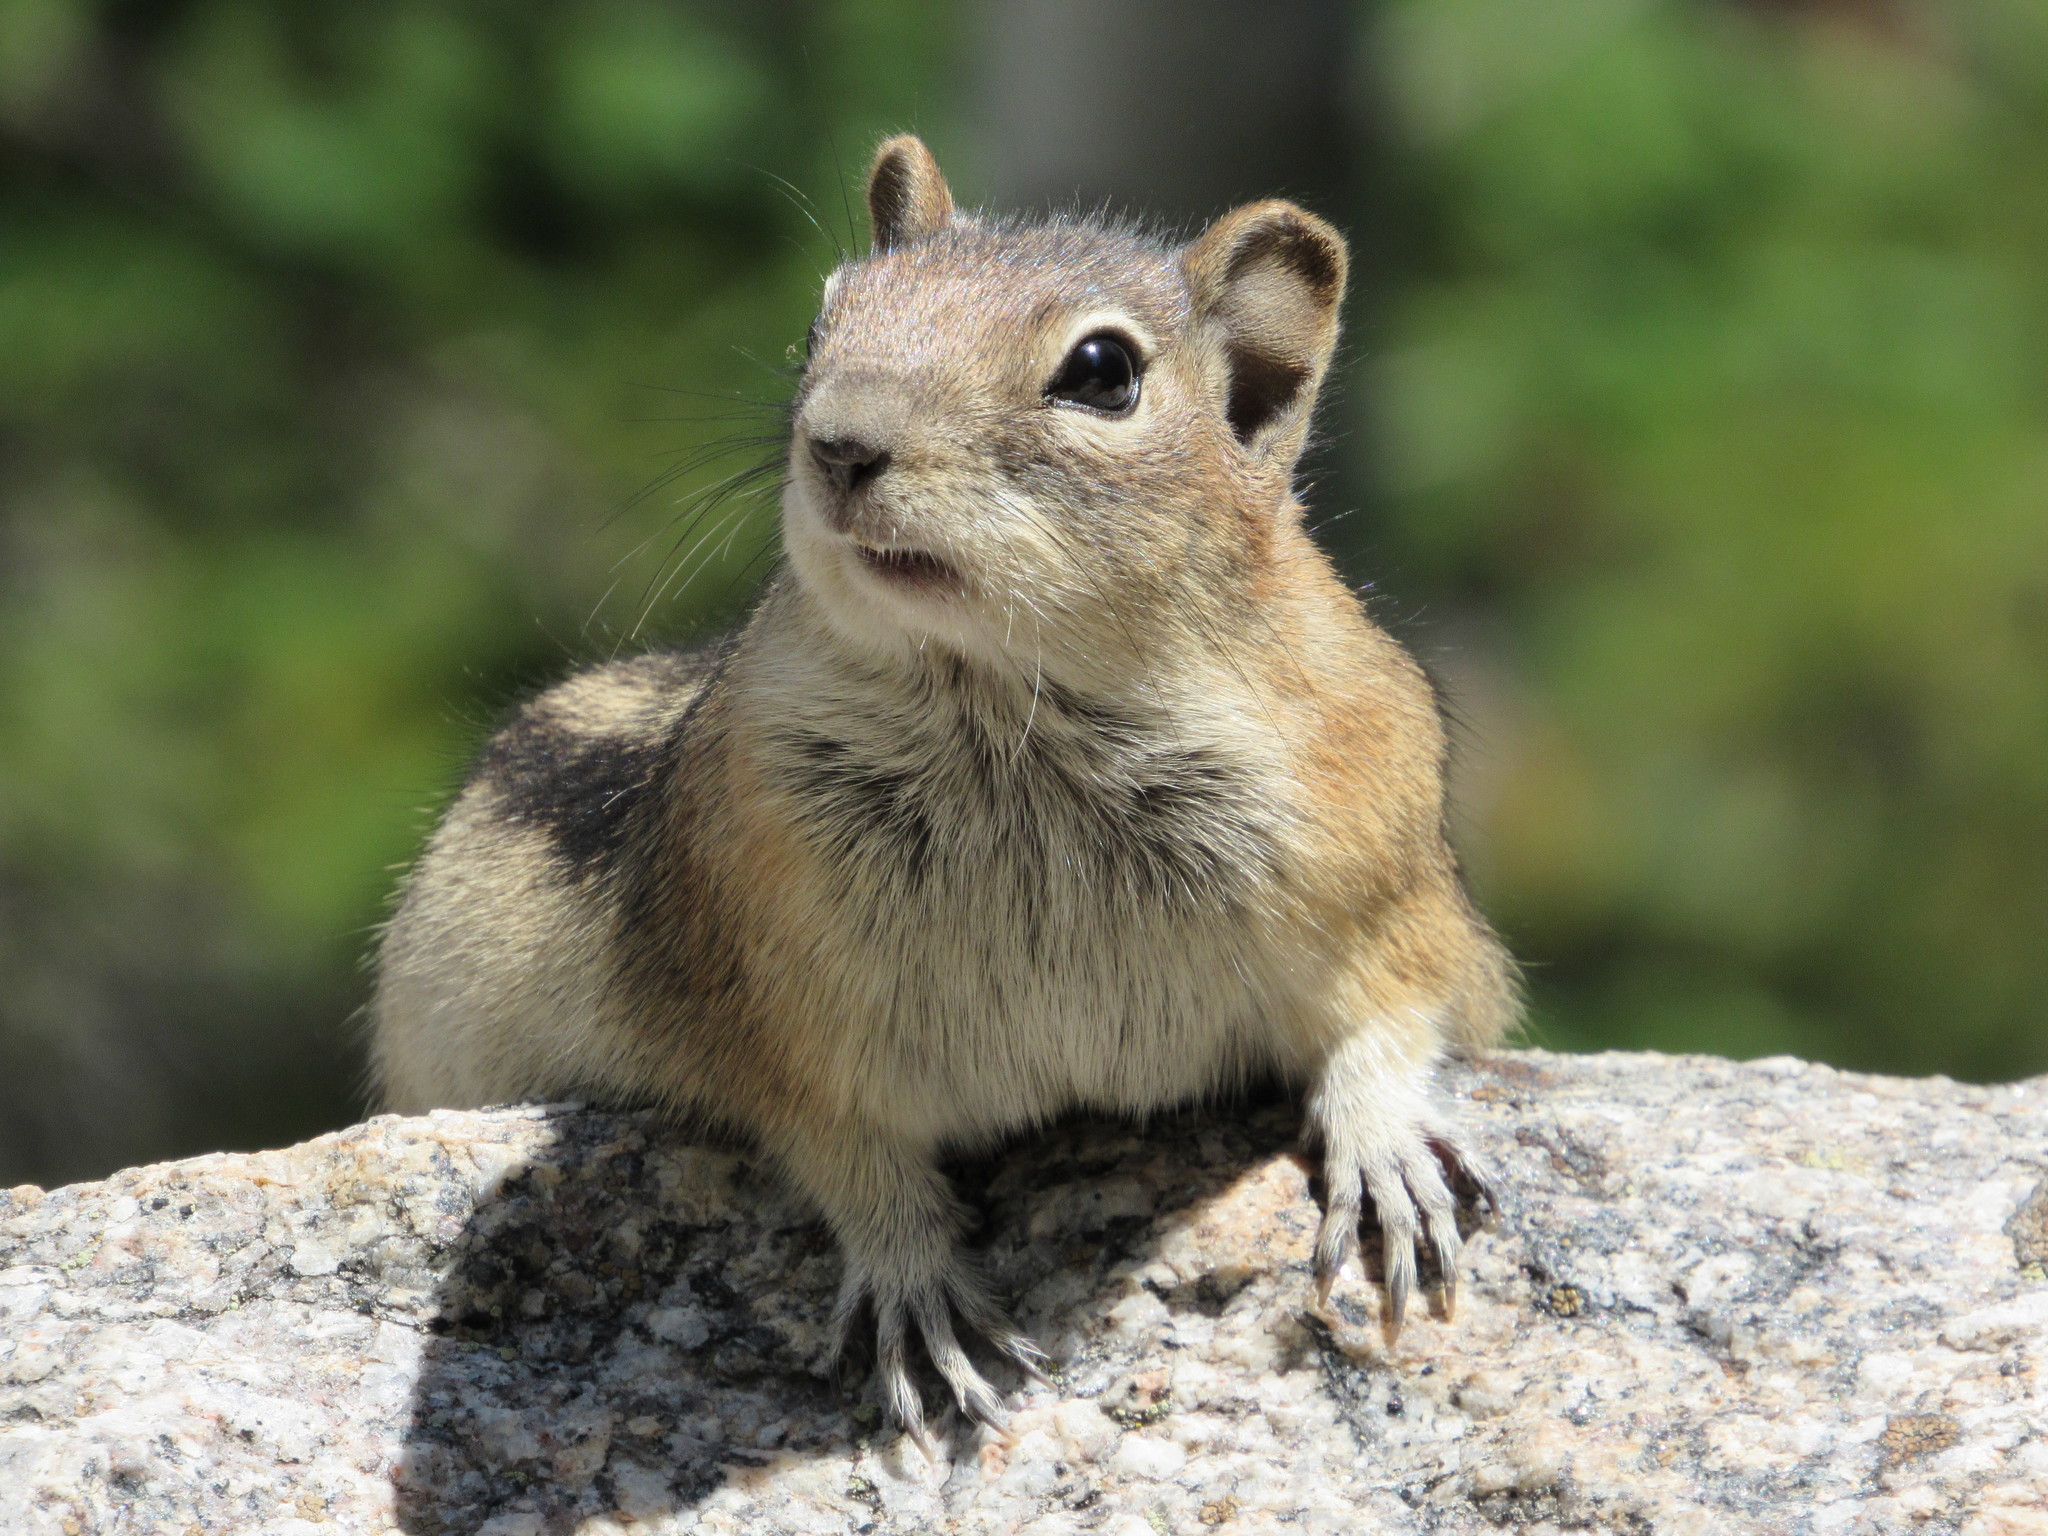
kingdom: Animalia
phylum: Chordata
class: Mammalia
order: Rodentia
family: Sciuridae
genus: Callospermophilus
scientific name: Callospermophilus lateralis
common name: Golden-mantled ground squirrel
